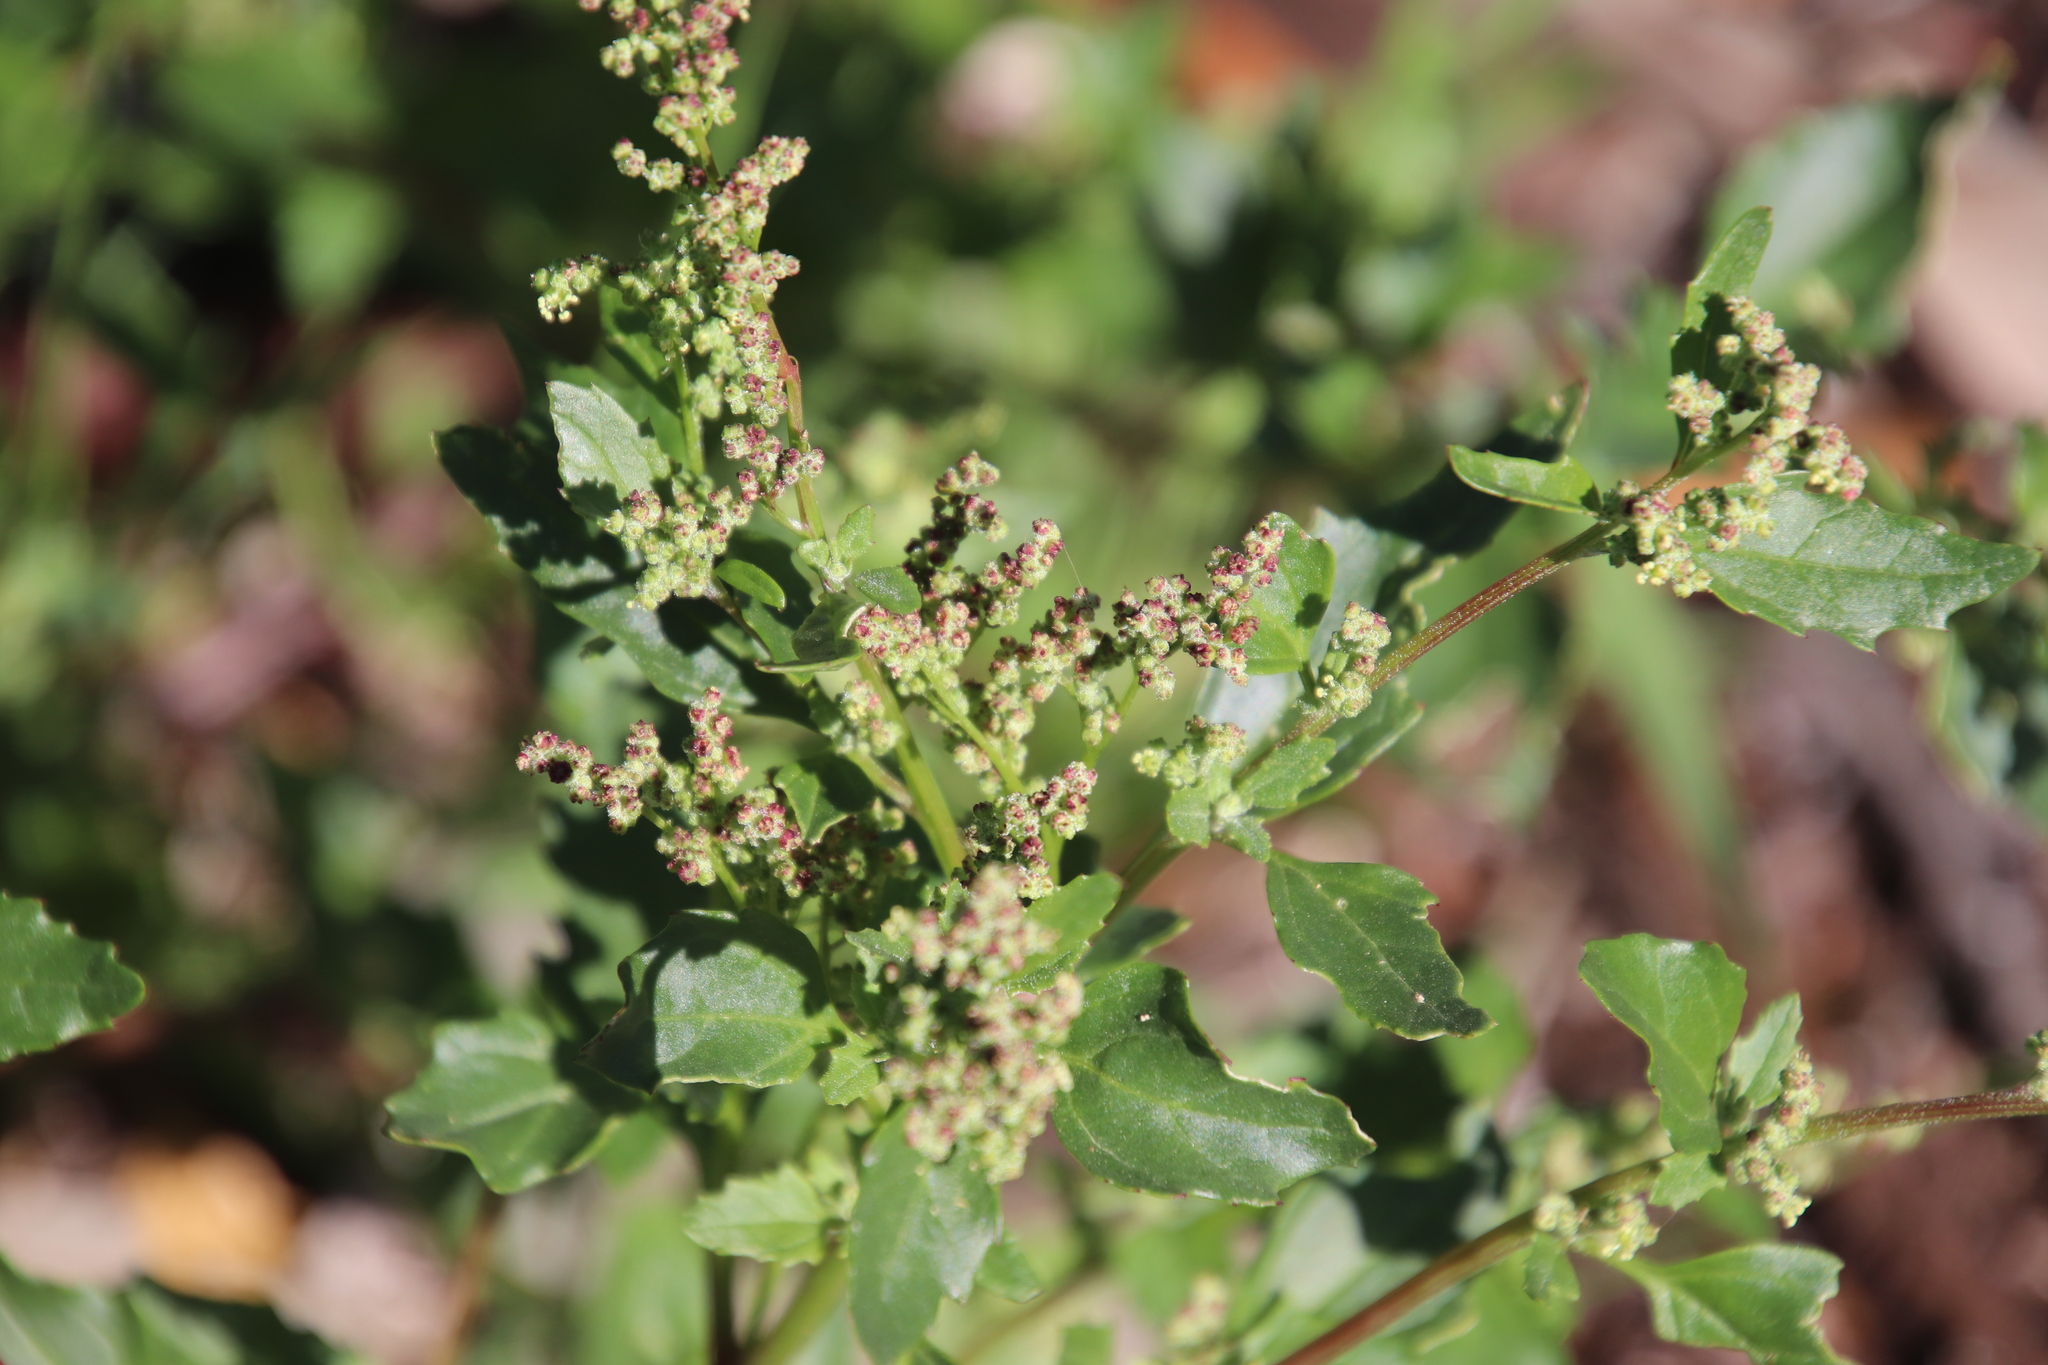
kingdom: Plantae
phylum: Tracheophyta
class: Magnoliopsida
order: Caryophyllales
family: Amaranthaceae
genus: Chenopodiastrum
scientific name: Chenopodiastrum murale
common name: Sowbane
